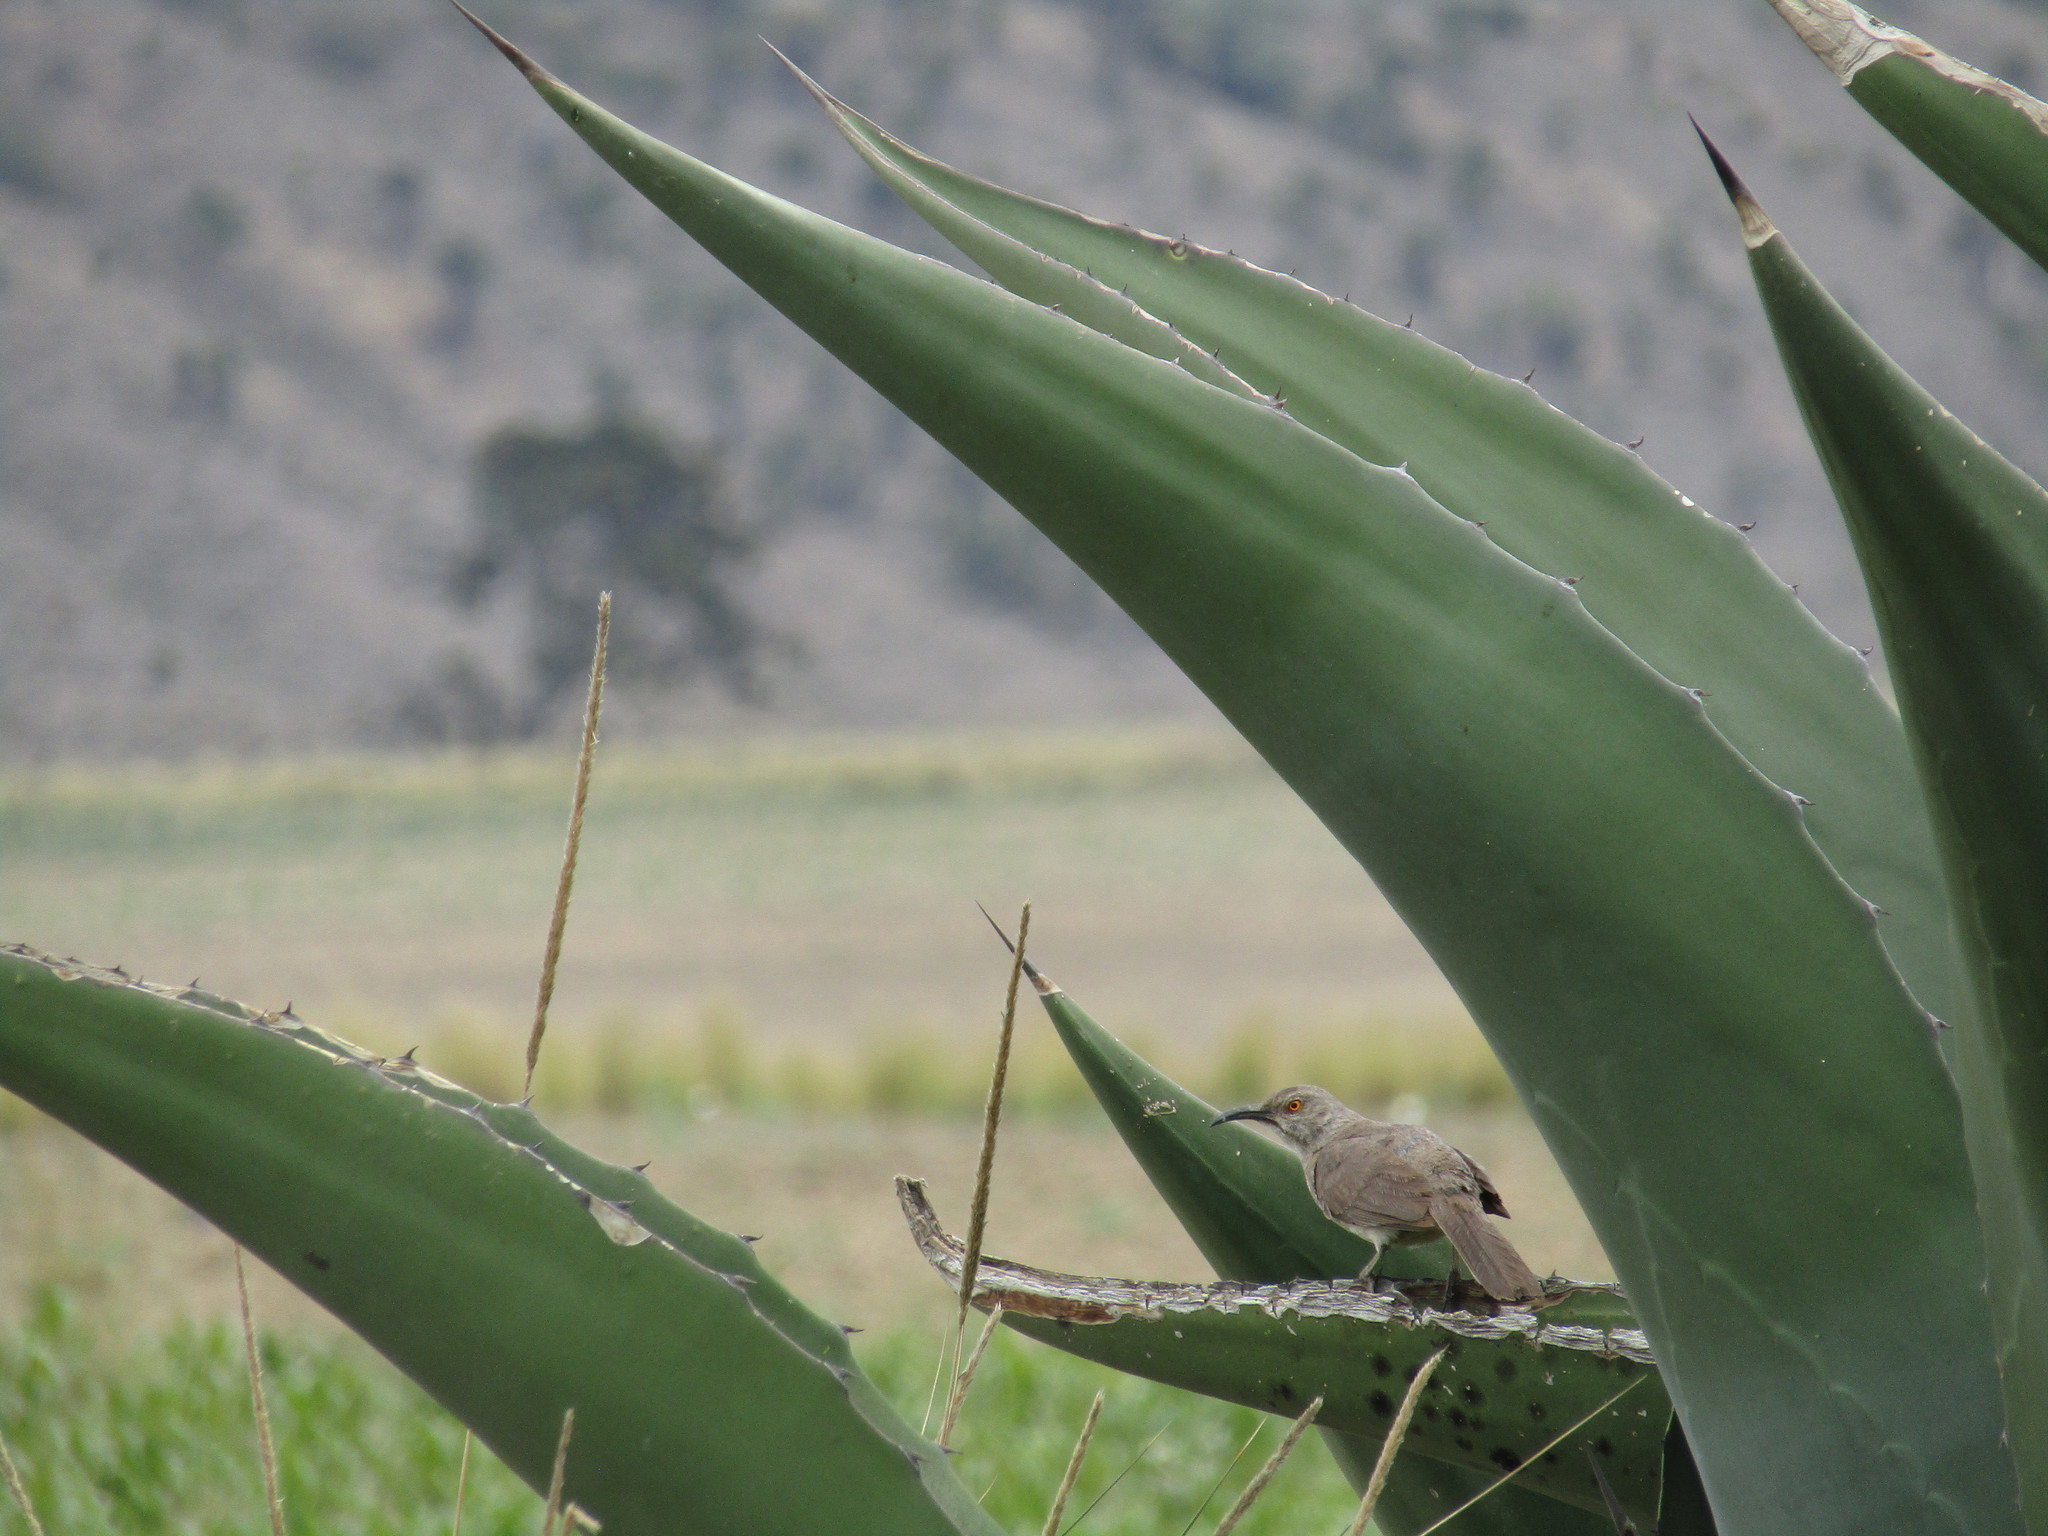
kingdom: Animalia
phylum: Chordata
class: Aves
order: Passeriformes
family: Mimidae
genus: Toxostoma
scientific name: Toxostoma curvirostre
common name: Curve-billed thrasher
